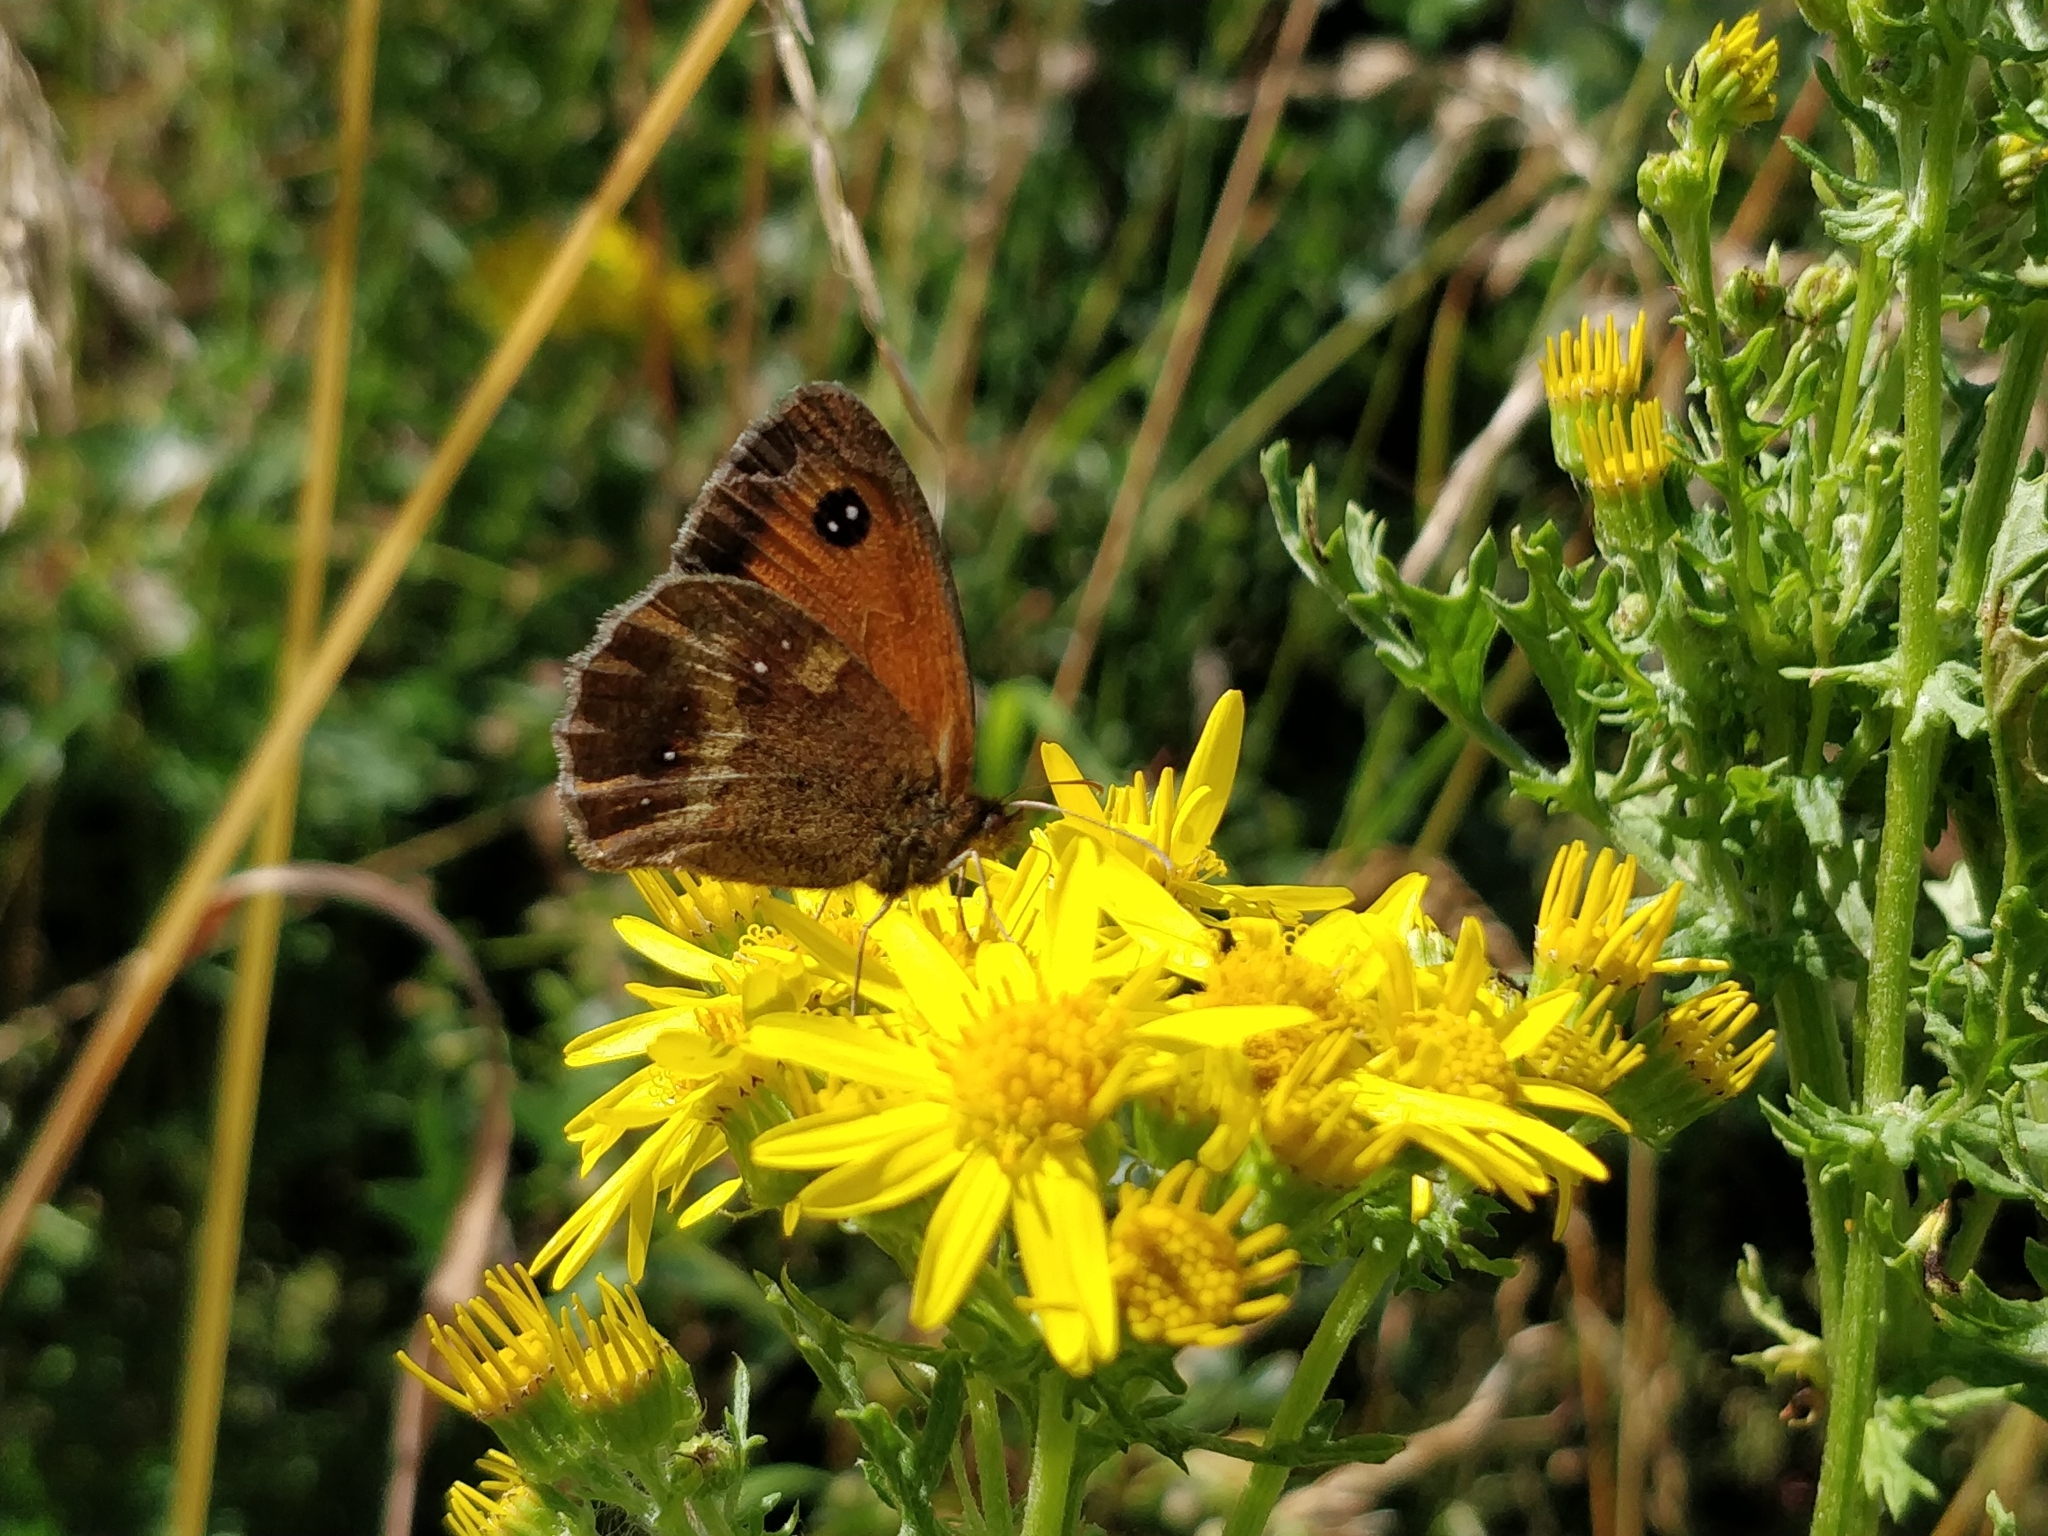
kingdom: Animalia
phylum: Arthropoda
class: Insecta
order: Lepidoptera
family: Nymphalidae
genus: Pyronia
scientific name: Pyronia tithonus
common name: Gatekeeper
